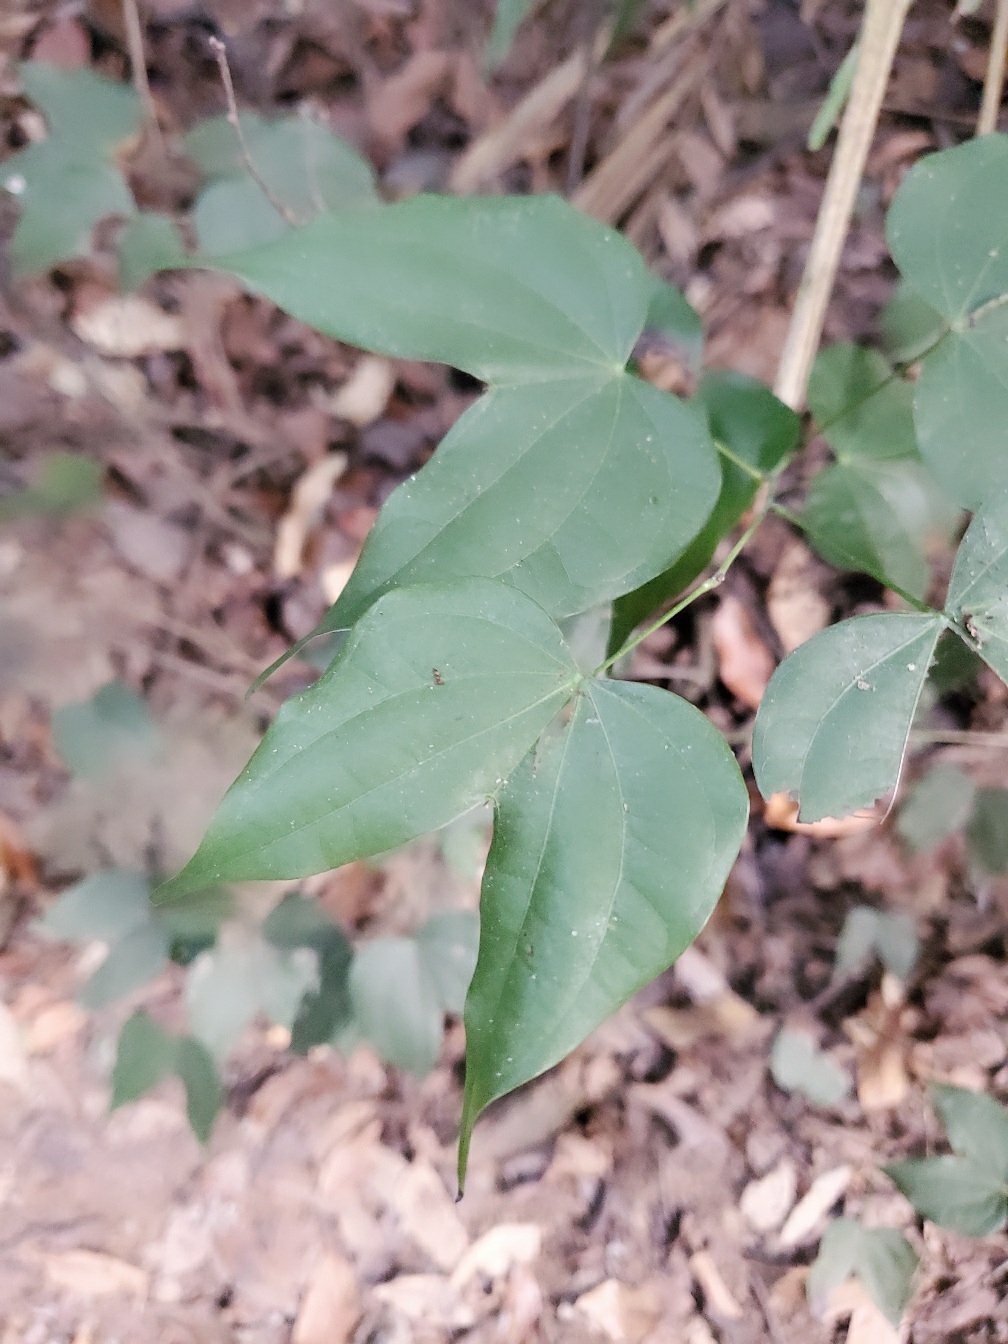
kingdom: Plantae
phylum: Tracheophyta
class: Magnoliopsida
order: Fabales
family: Fabaceae
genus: Phanera
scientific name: Phanera championii
